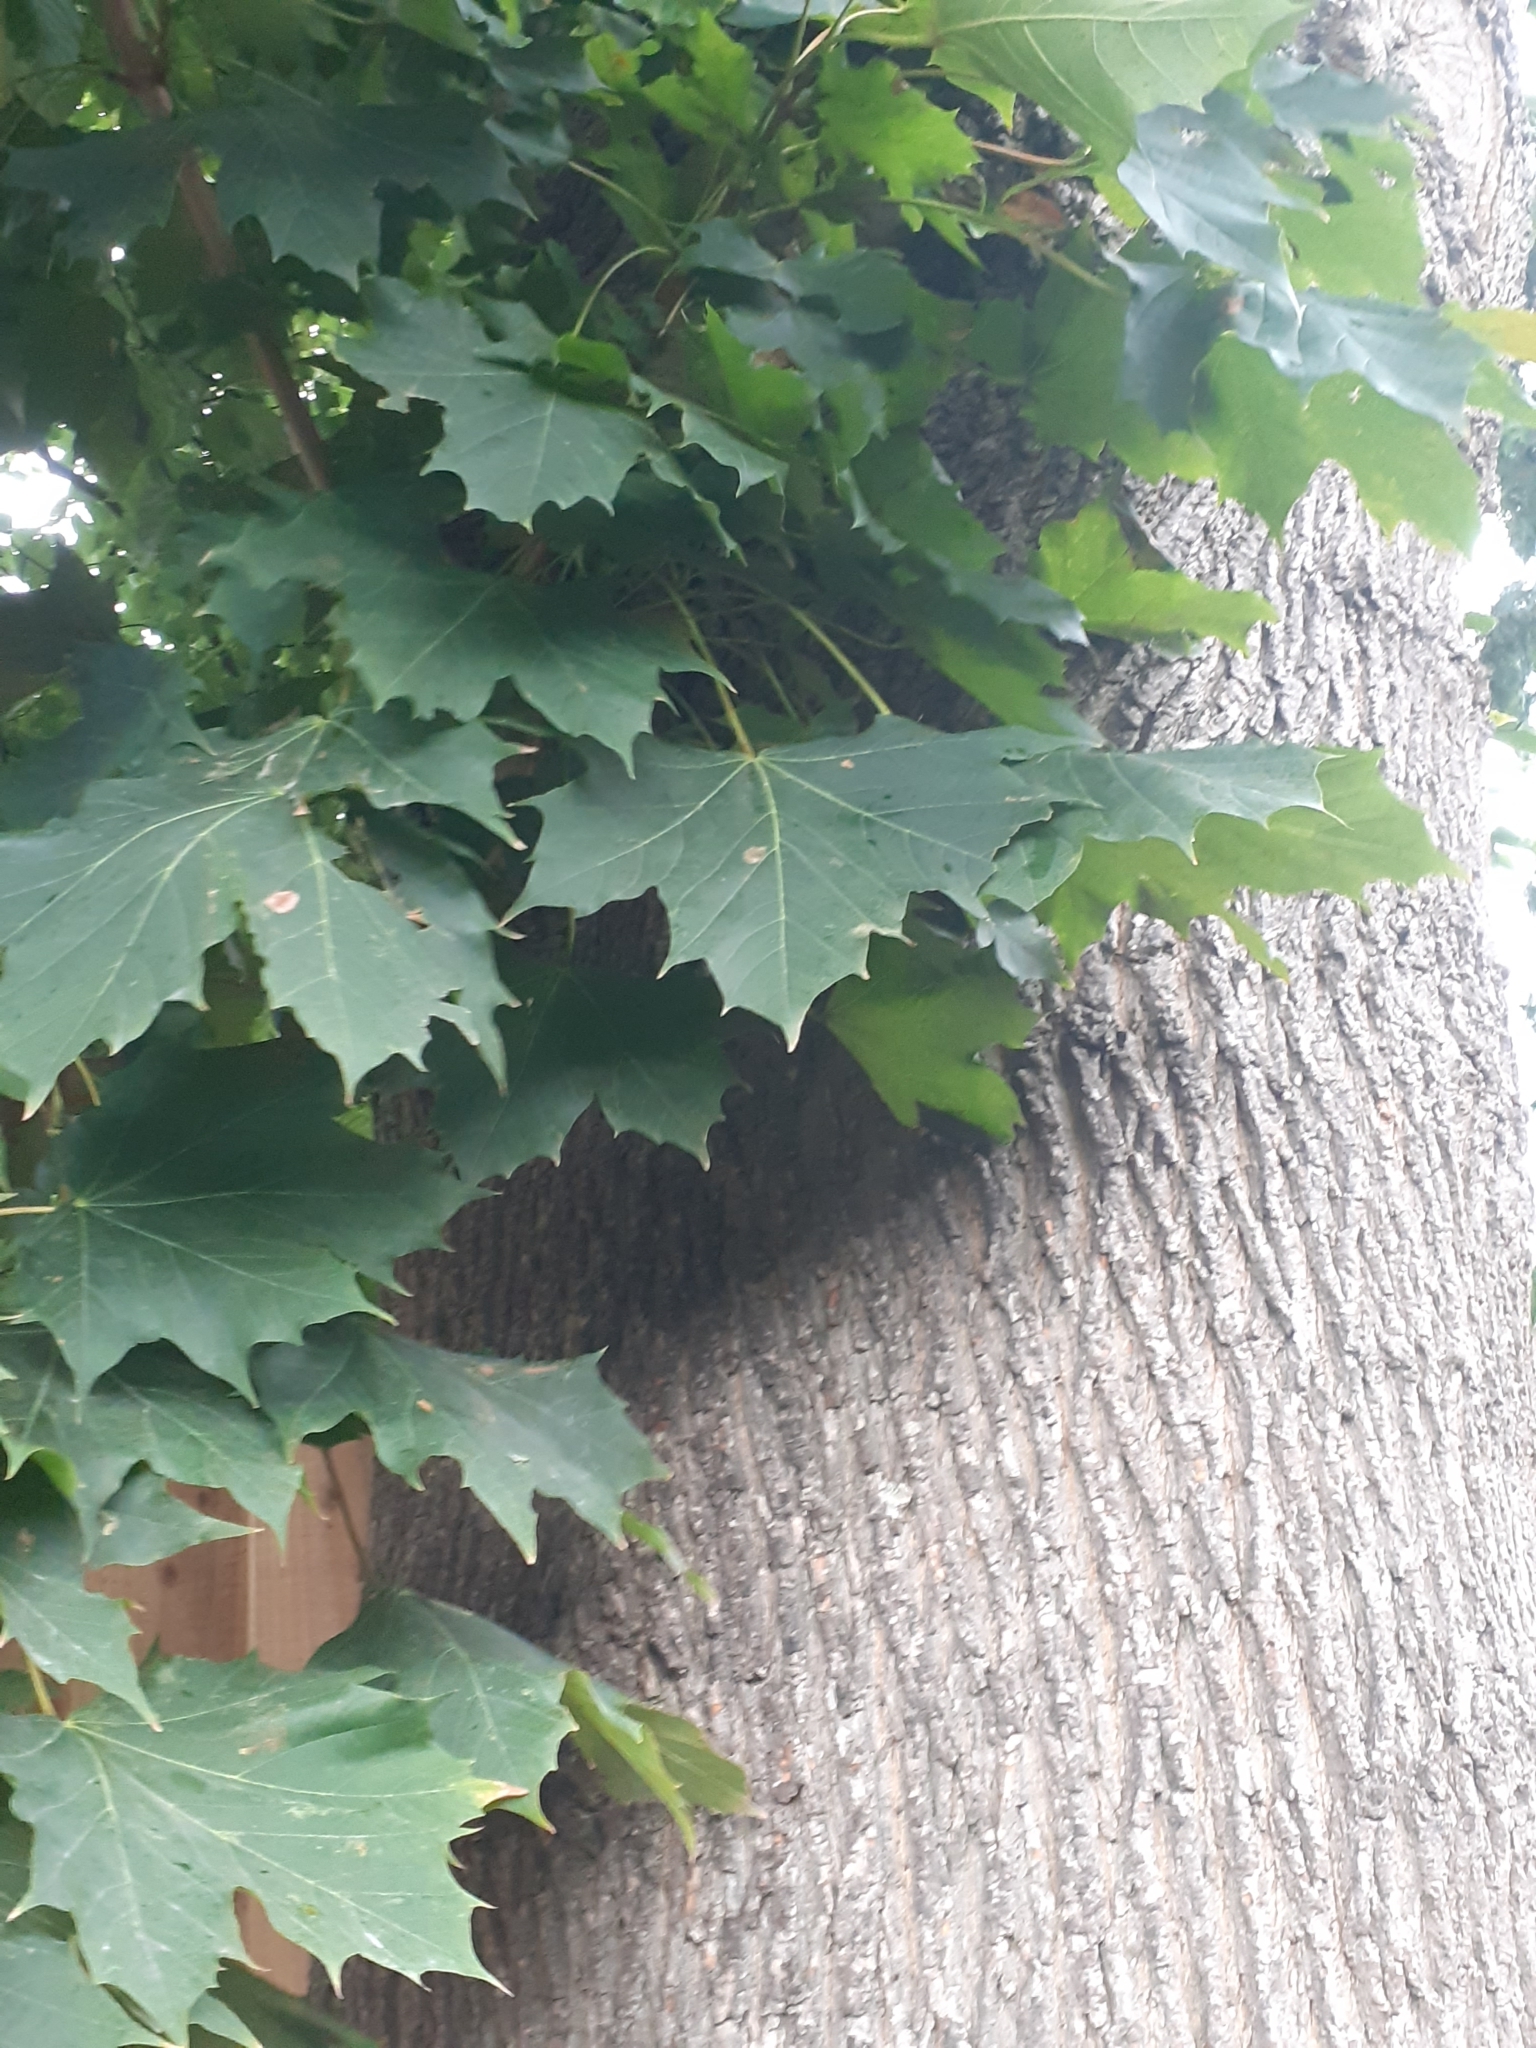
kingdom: Plantae
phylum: Tracheophyta
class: Magnoliopsida
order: Sapindales
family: Sapindaceae
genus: Acer
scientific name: Acer platanoides
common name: Norway maple
